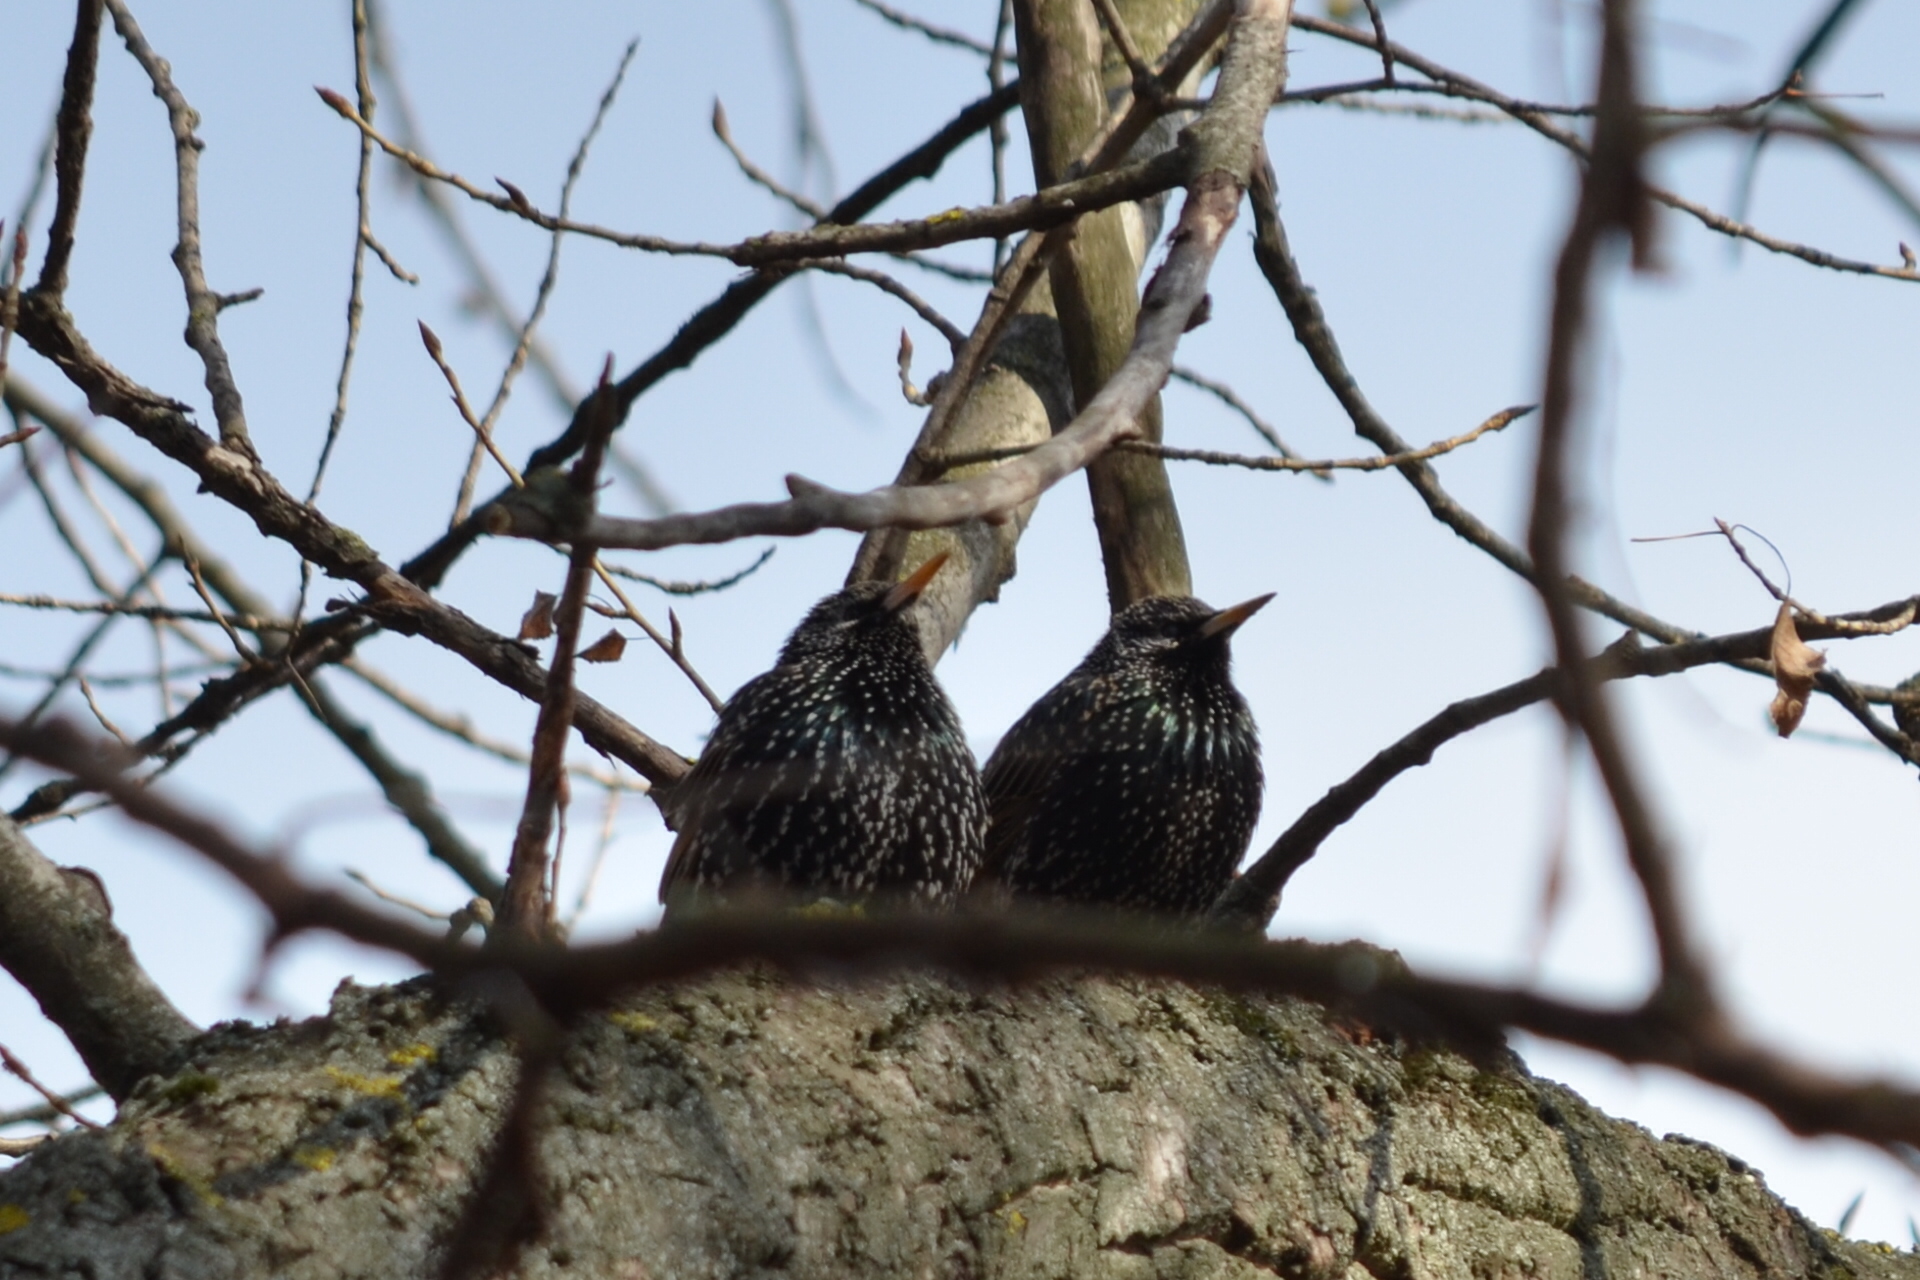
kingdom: Animalia
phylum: Chordata
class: Aves
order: Passeriformes
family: Sturnidae
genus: Sturnus
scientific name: Sturnus vulgaris
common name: Common starling
